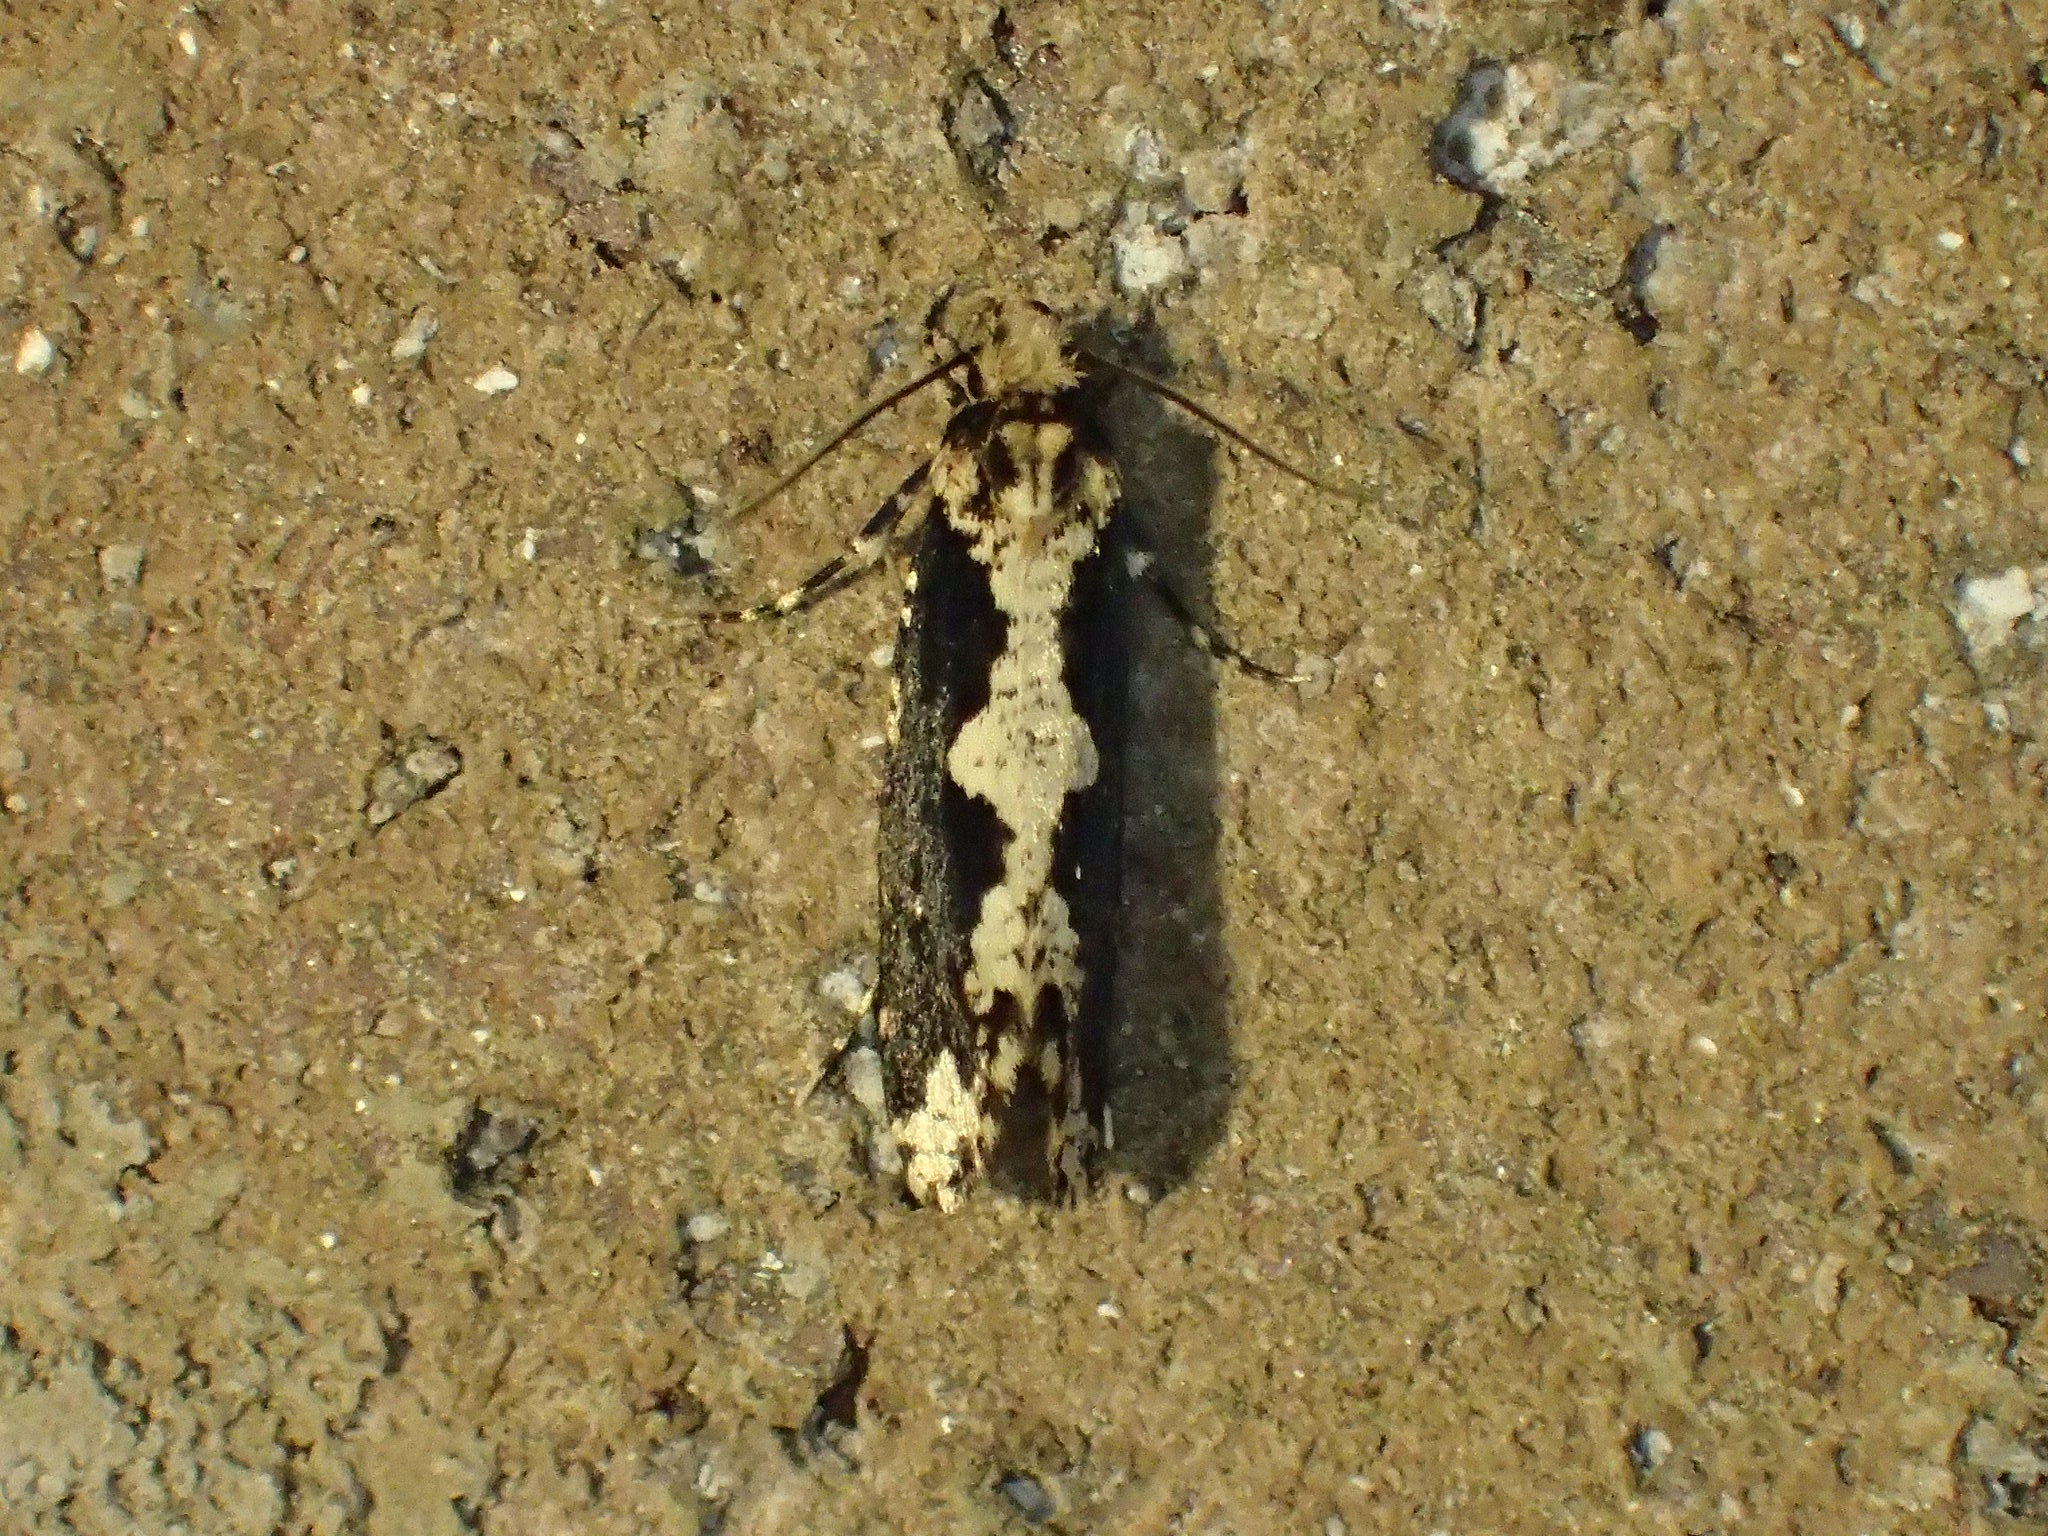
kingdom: Animalia
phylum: Arthropoda
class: Insecta
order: Lepidoptera
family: Tortricidae
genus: Chimoptesis
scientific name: Chimoptesis pennsylvaniana
